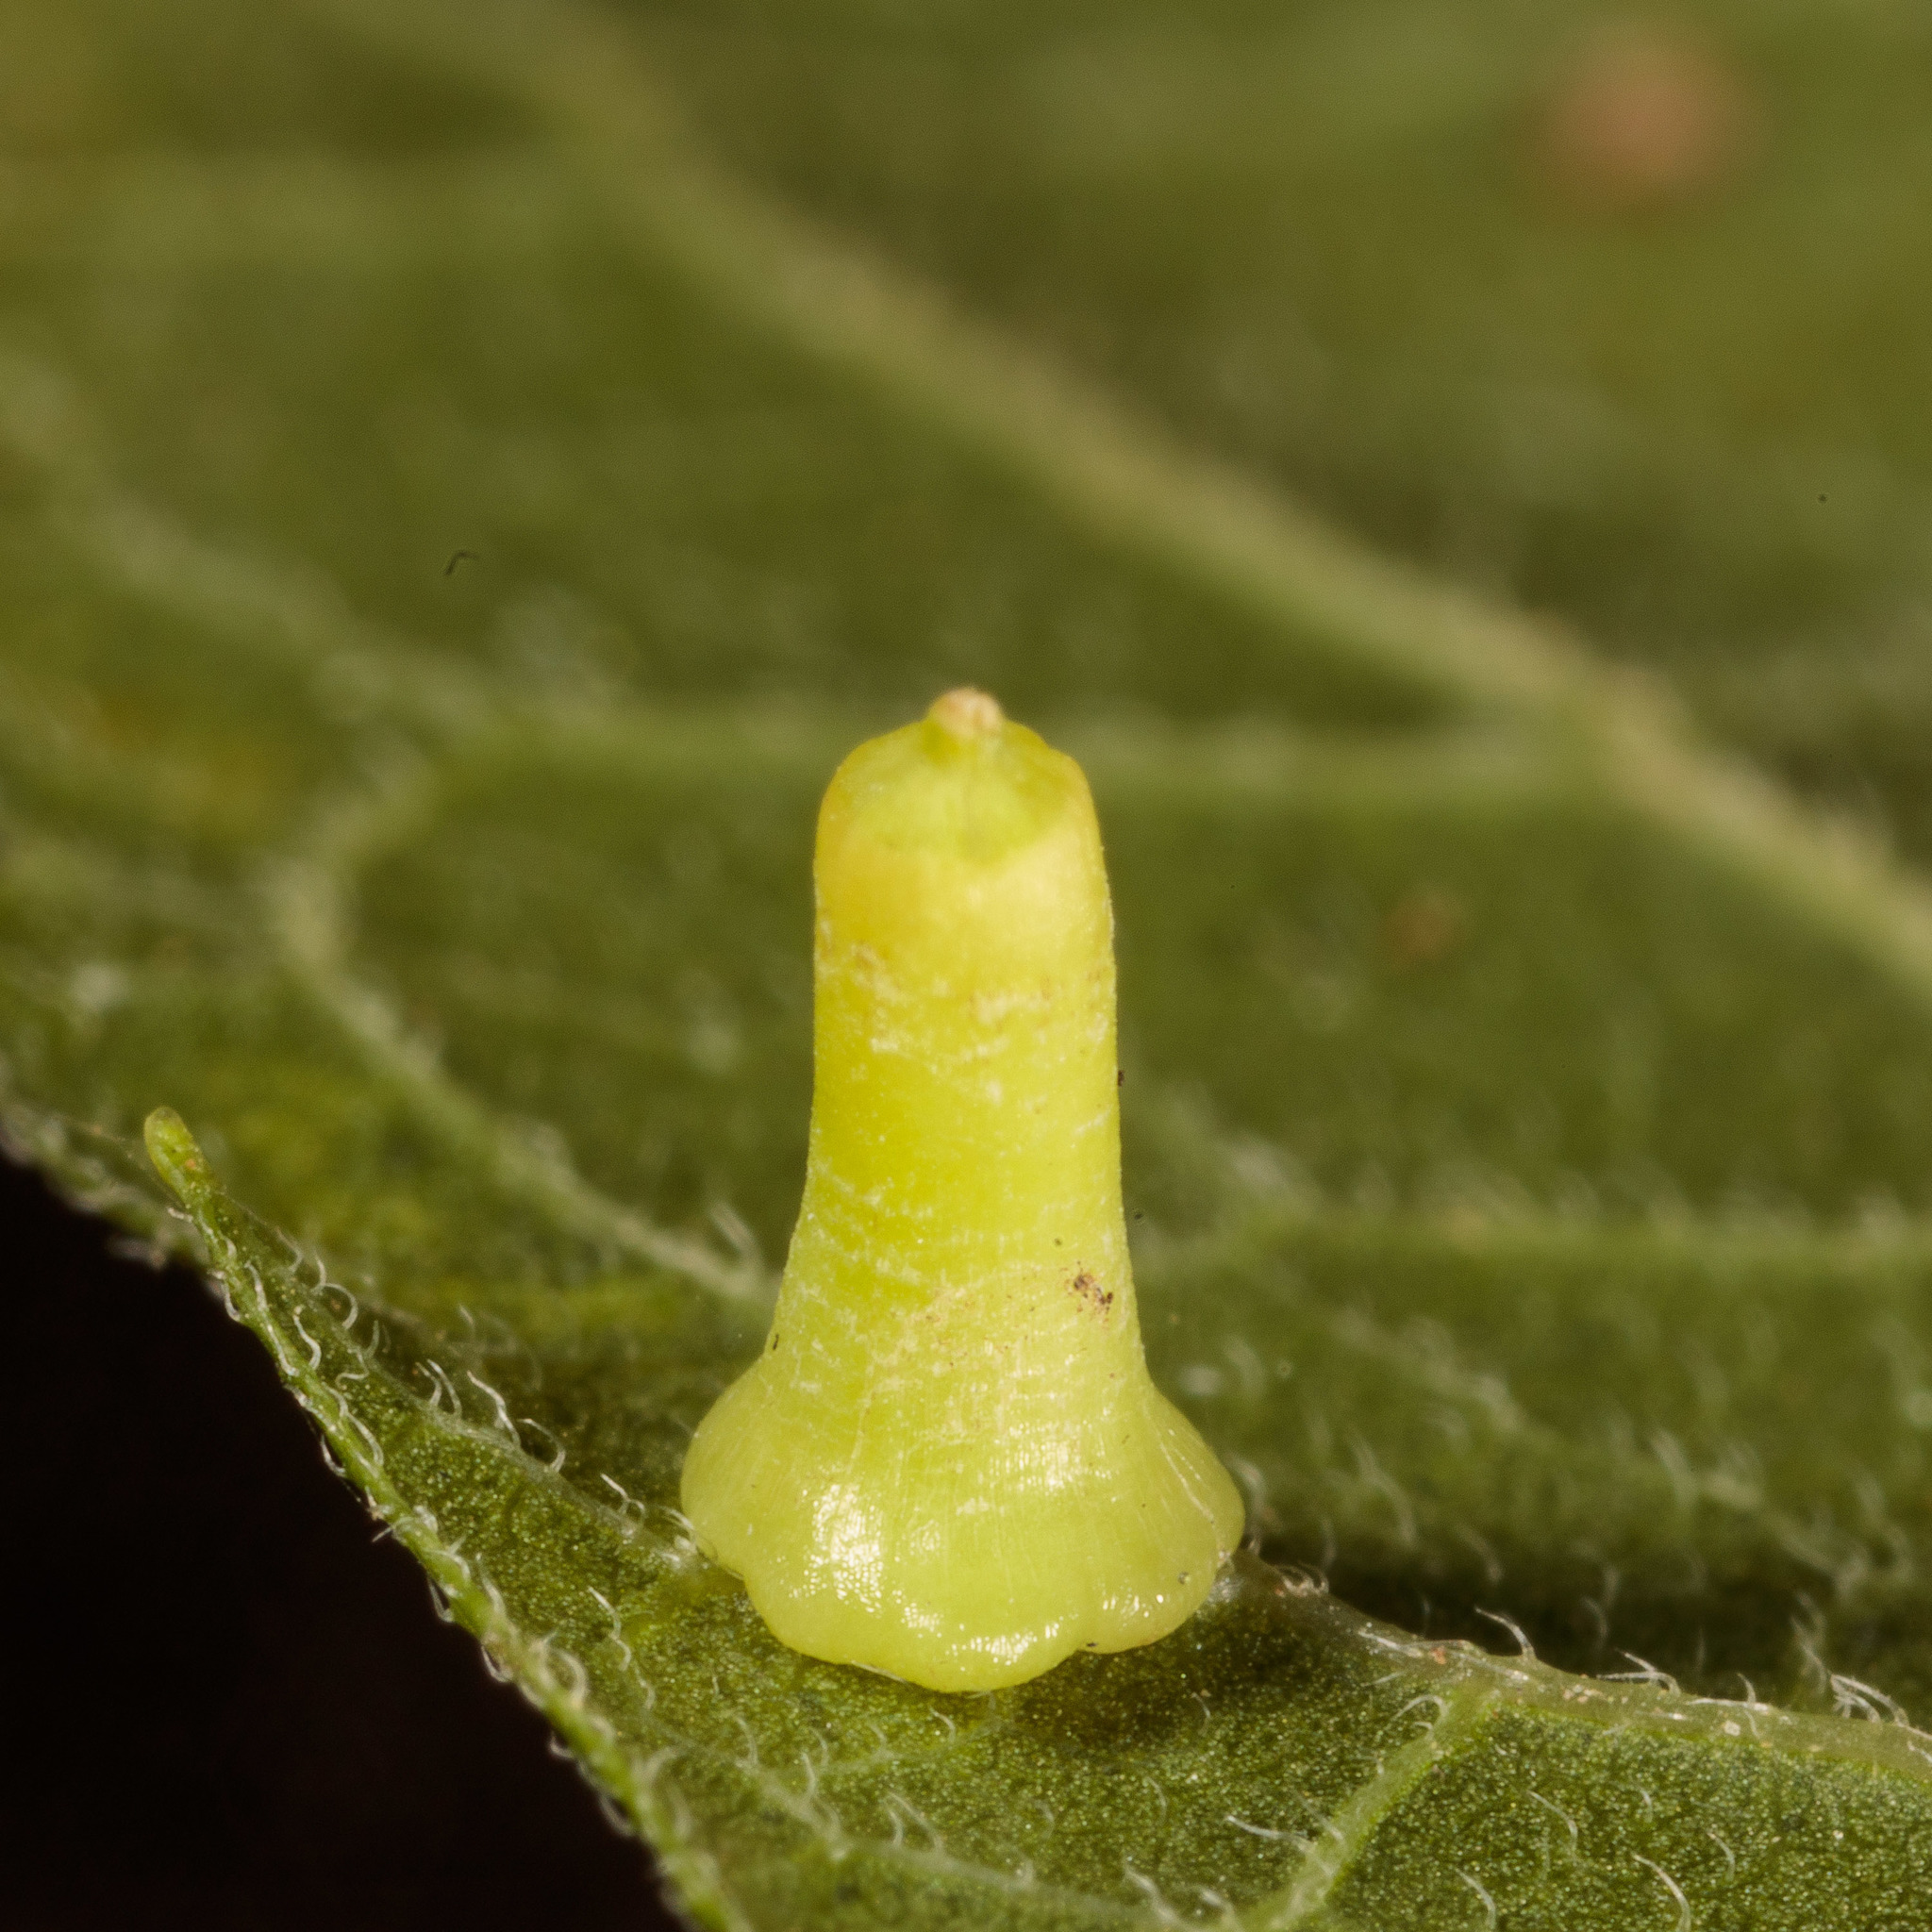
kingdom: Animalia
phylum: Arthropoda
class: Insecta
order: Diptera
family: Cecidomyiidae
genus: Celticecis
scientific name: Celticecis aciculata
